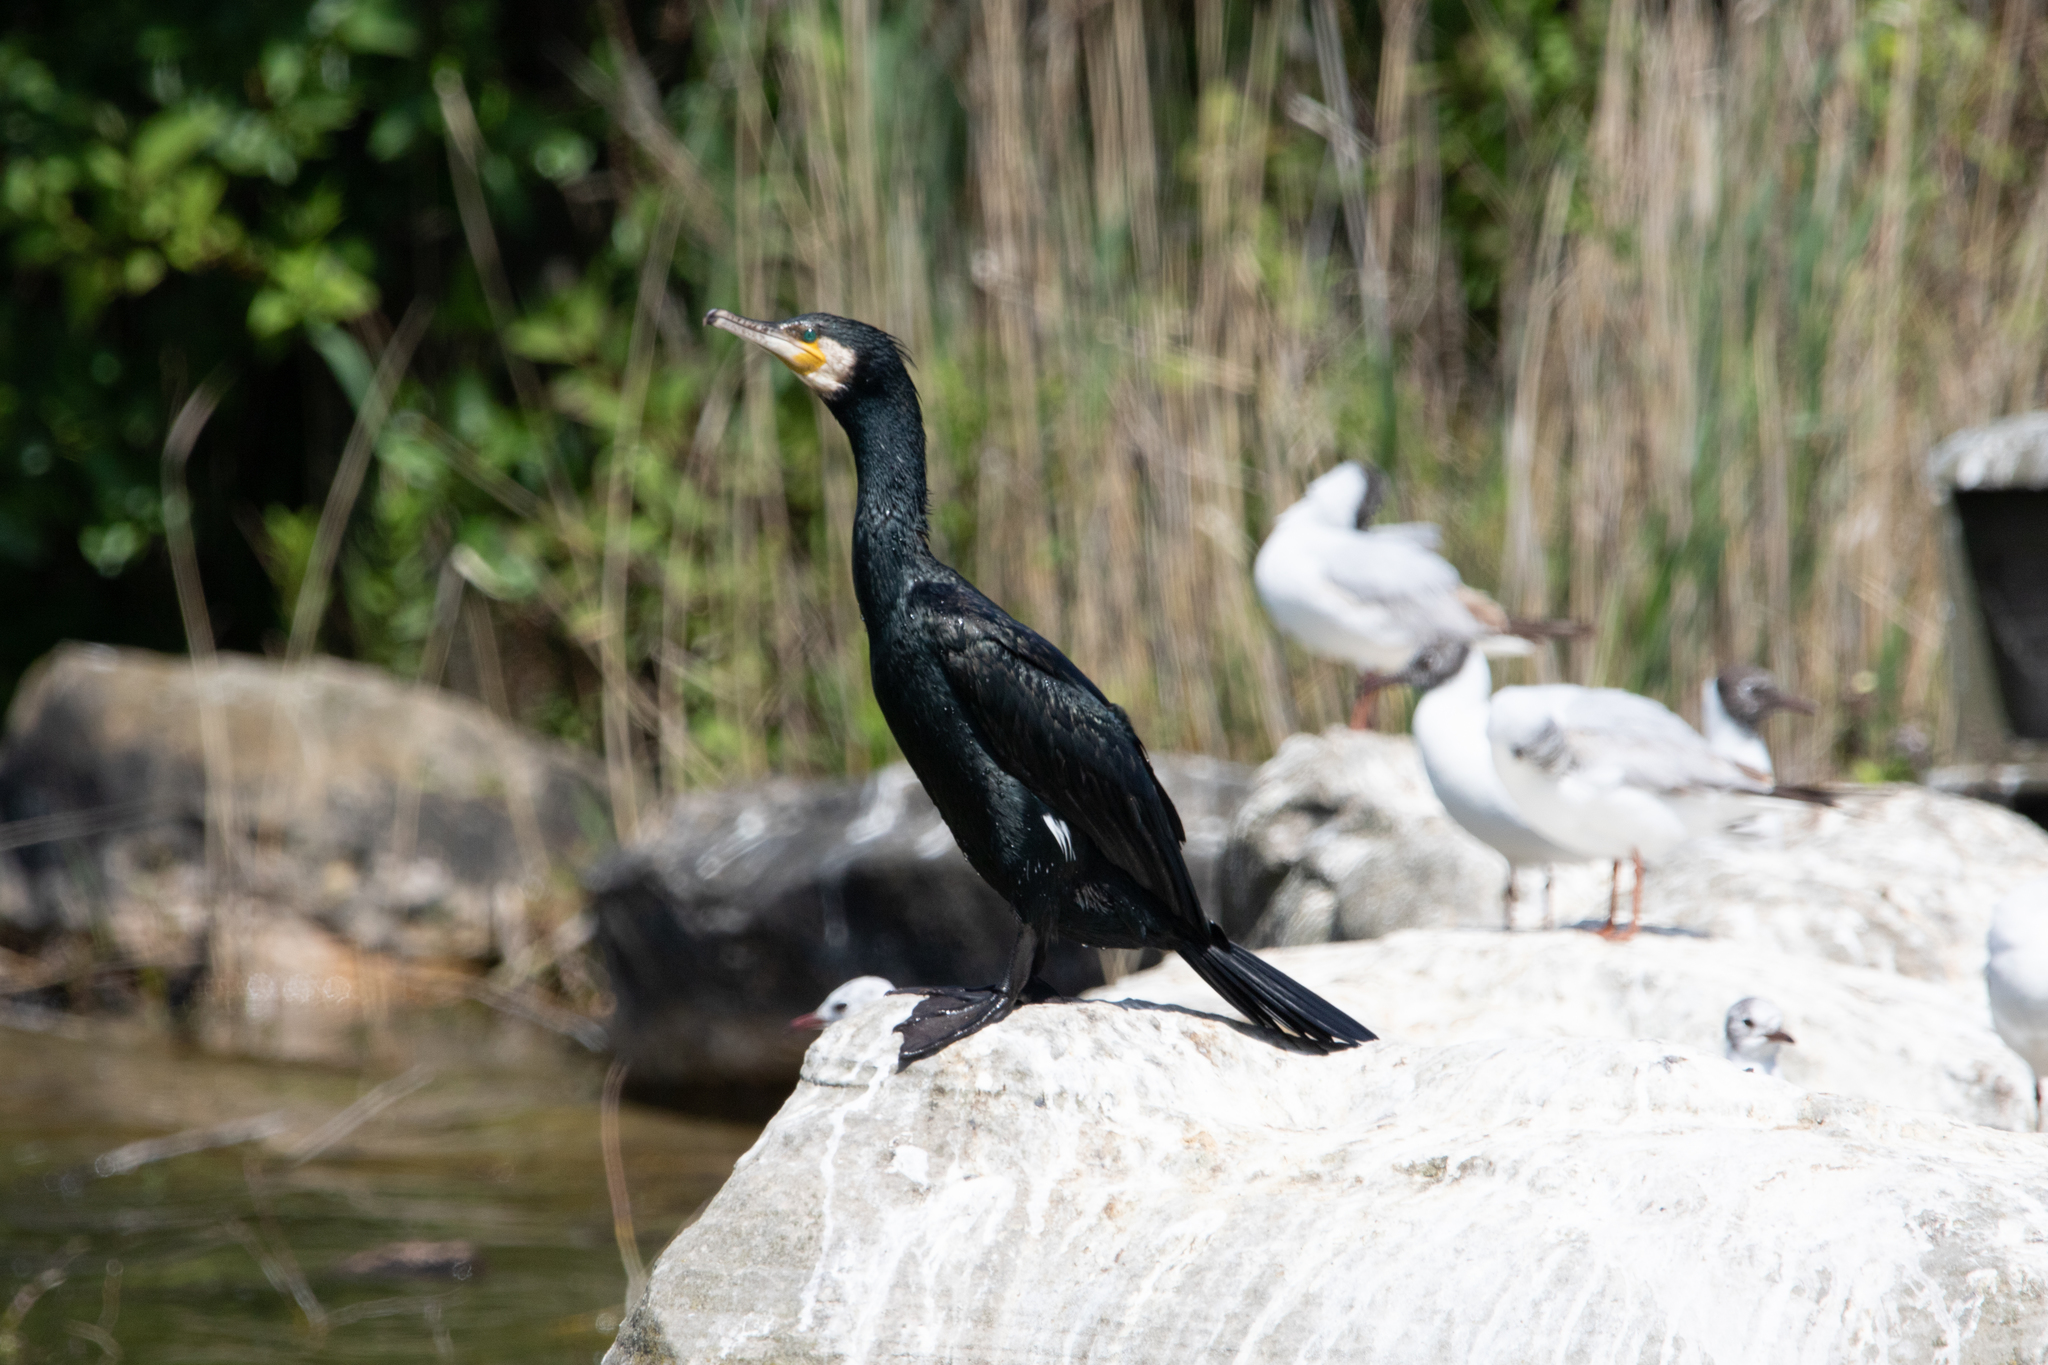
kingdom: Animalia
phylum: Chordata
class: Aves
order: Suliformes
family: Phalacrocoracidae
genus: Phalacrocorax
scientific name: Phalacrocorax carbo
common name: Great cormorant
